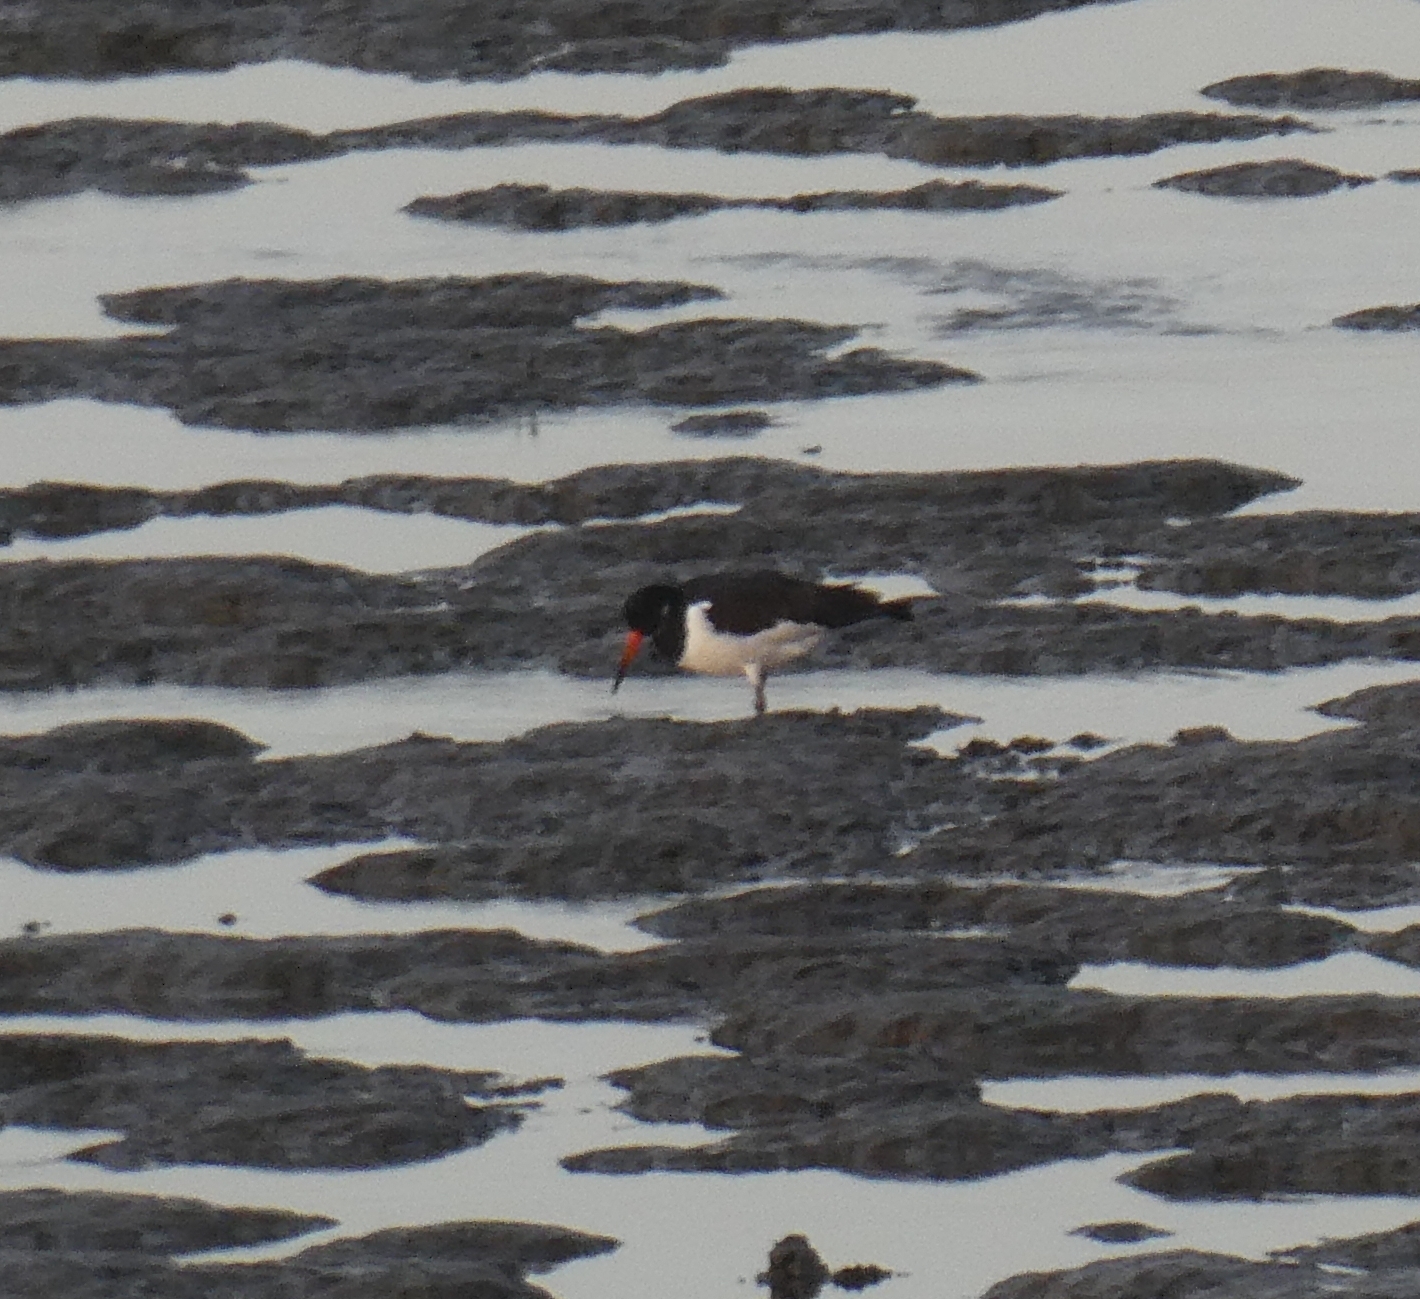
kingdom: Animalia
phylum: Chordata
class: Aves
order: Charadriiformes
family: Haematopodidae
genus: Haematopus
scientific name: Haematopus ostralegus
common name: Eurasian oystercatcher
